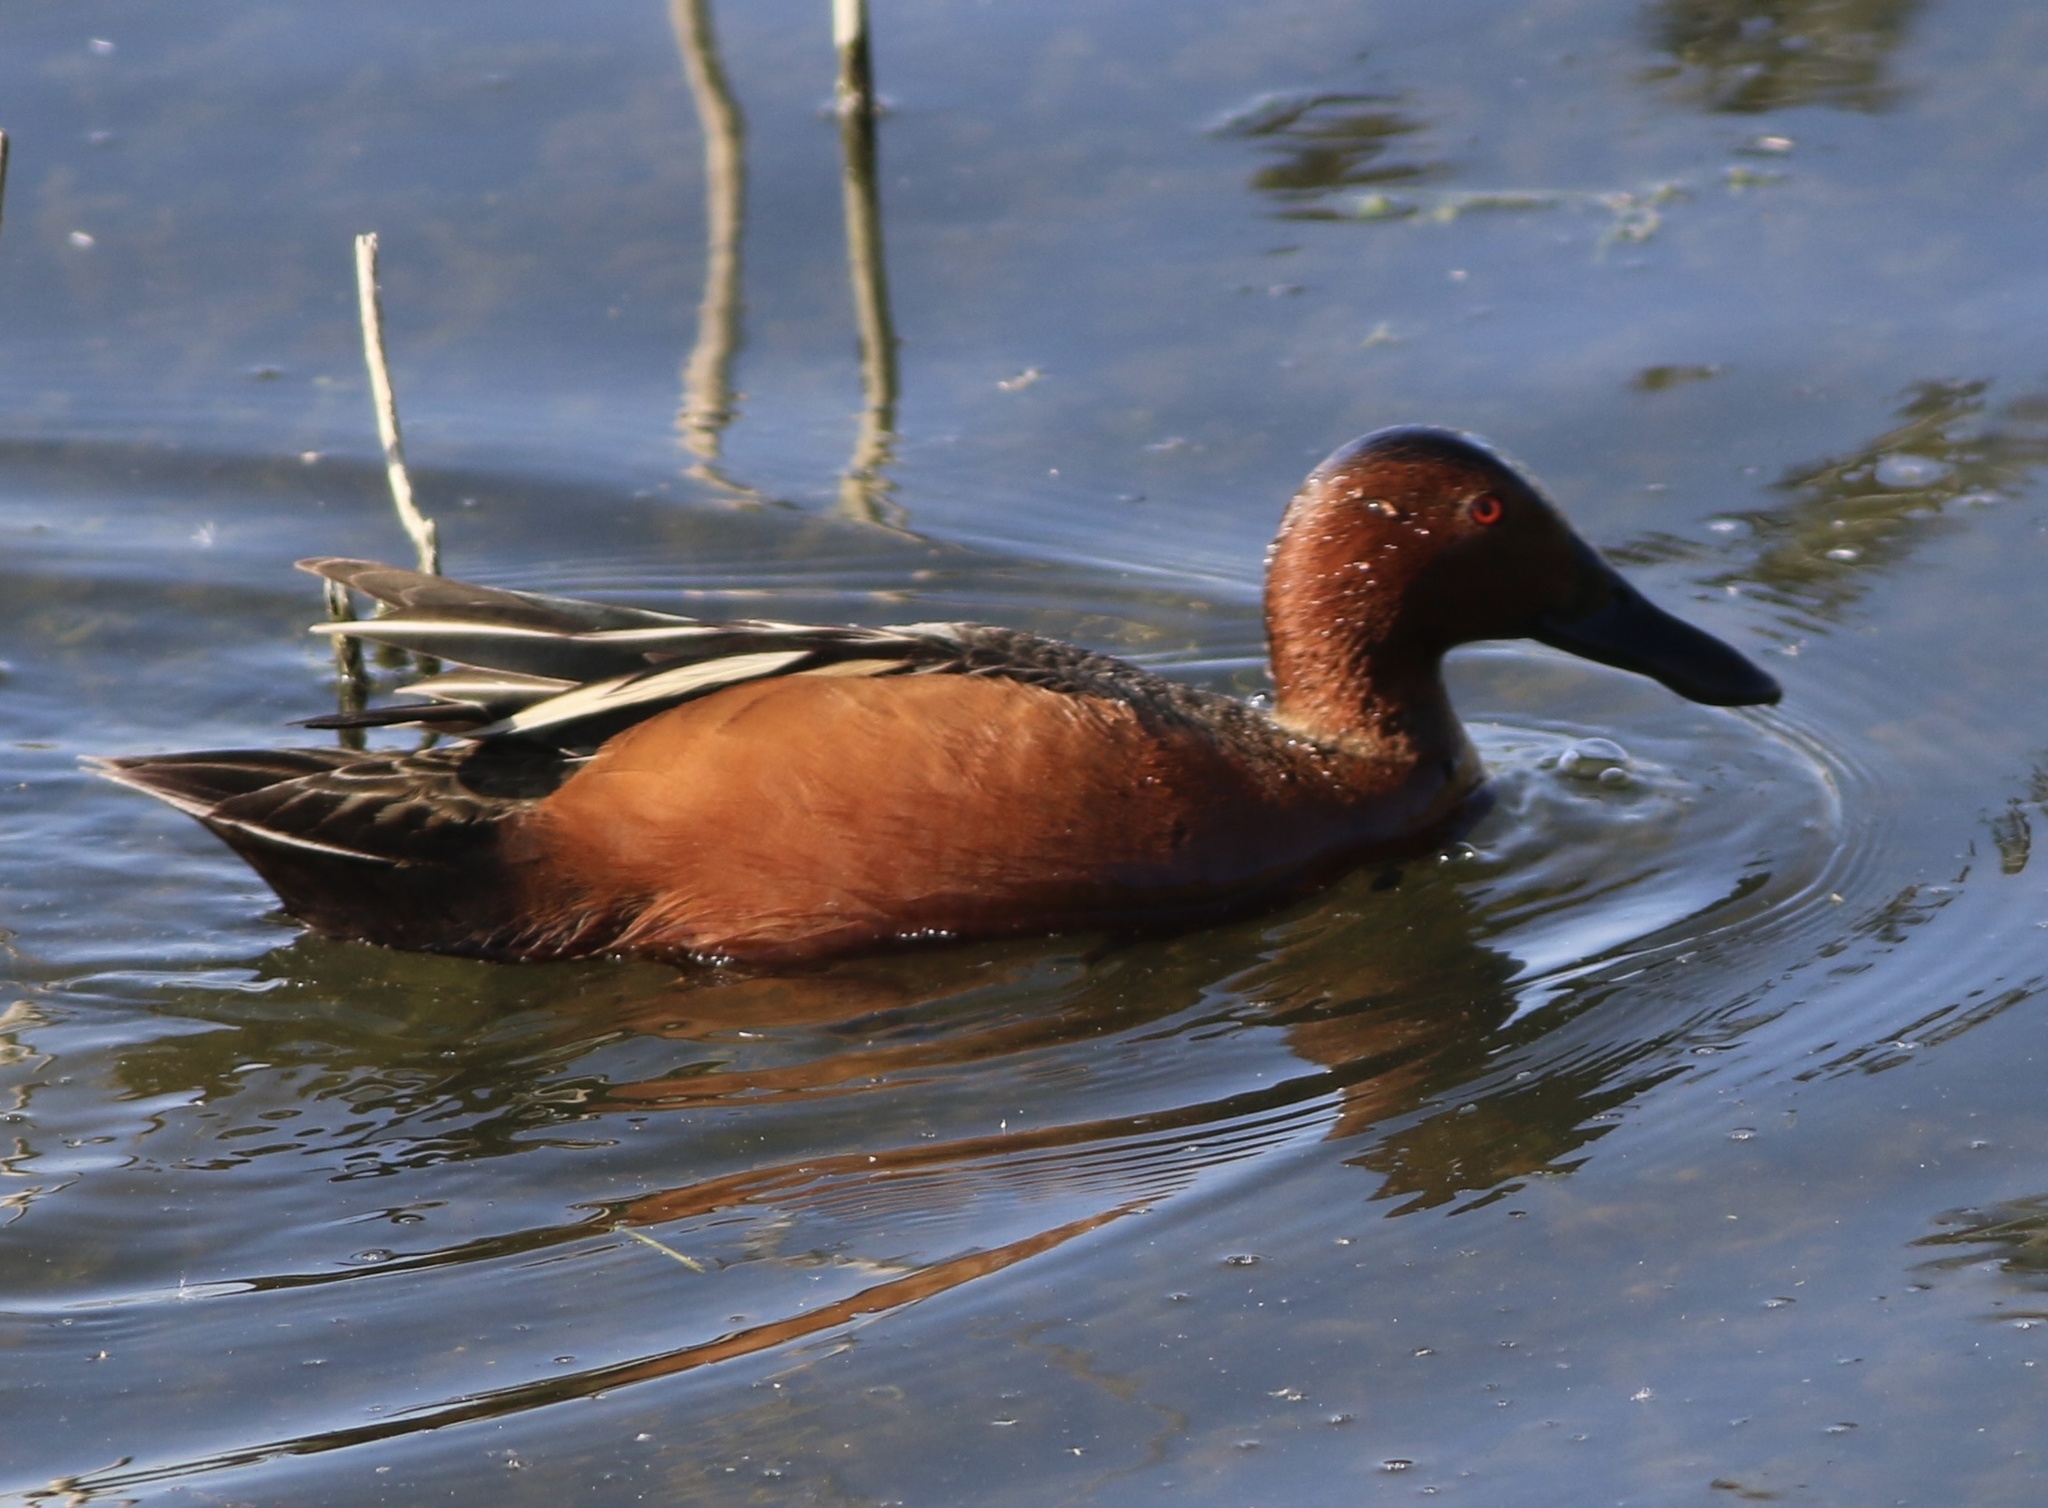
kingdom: Animalia
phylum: Chordata
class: Aves
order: Anseriformes
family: Anatidae
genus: Spatula
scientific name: Spatula cyanoptera
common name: Cinnamon teal
